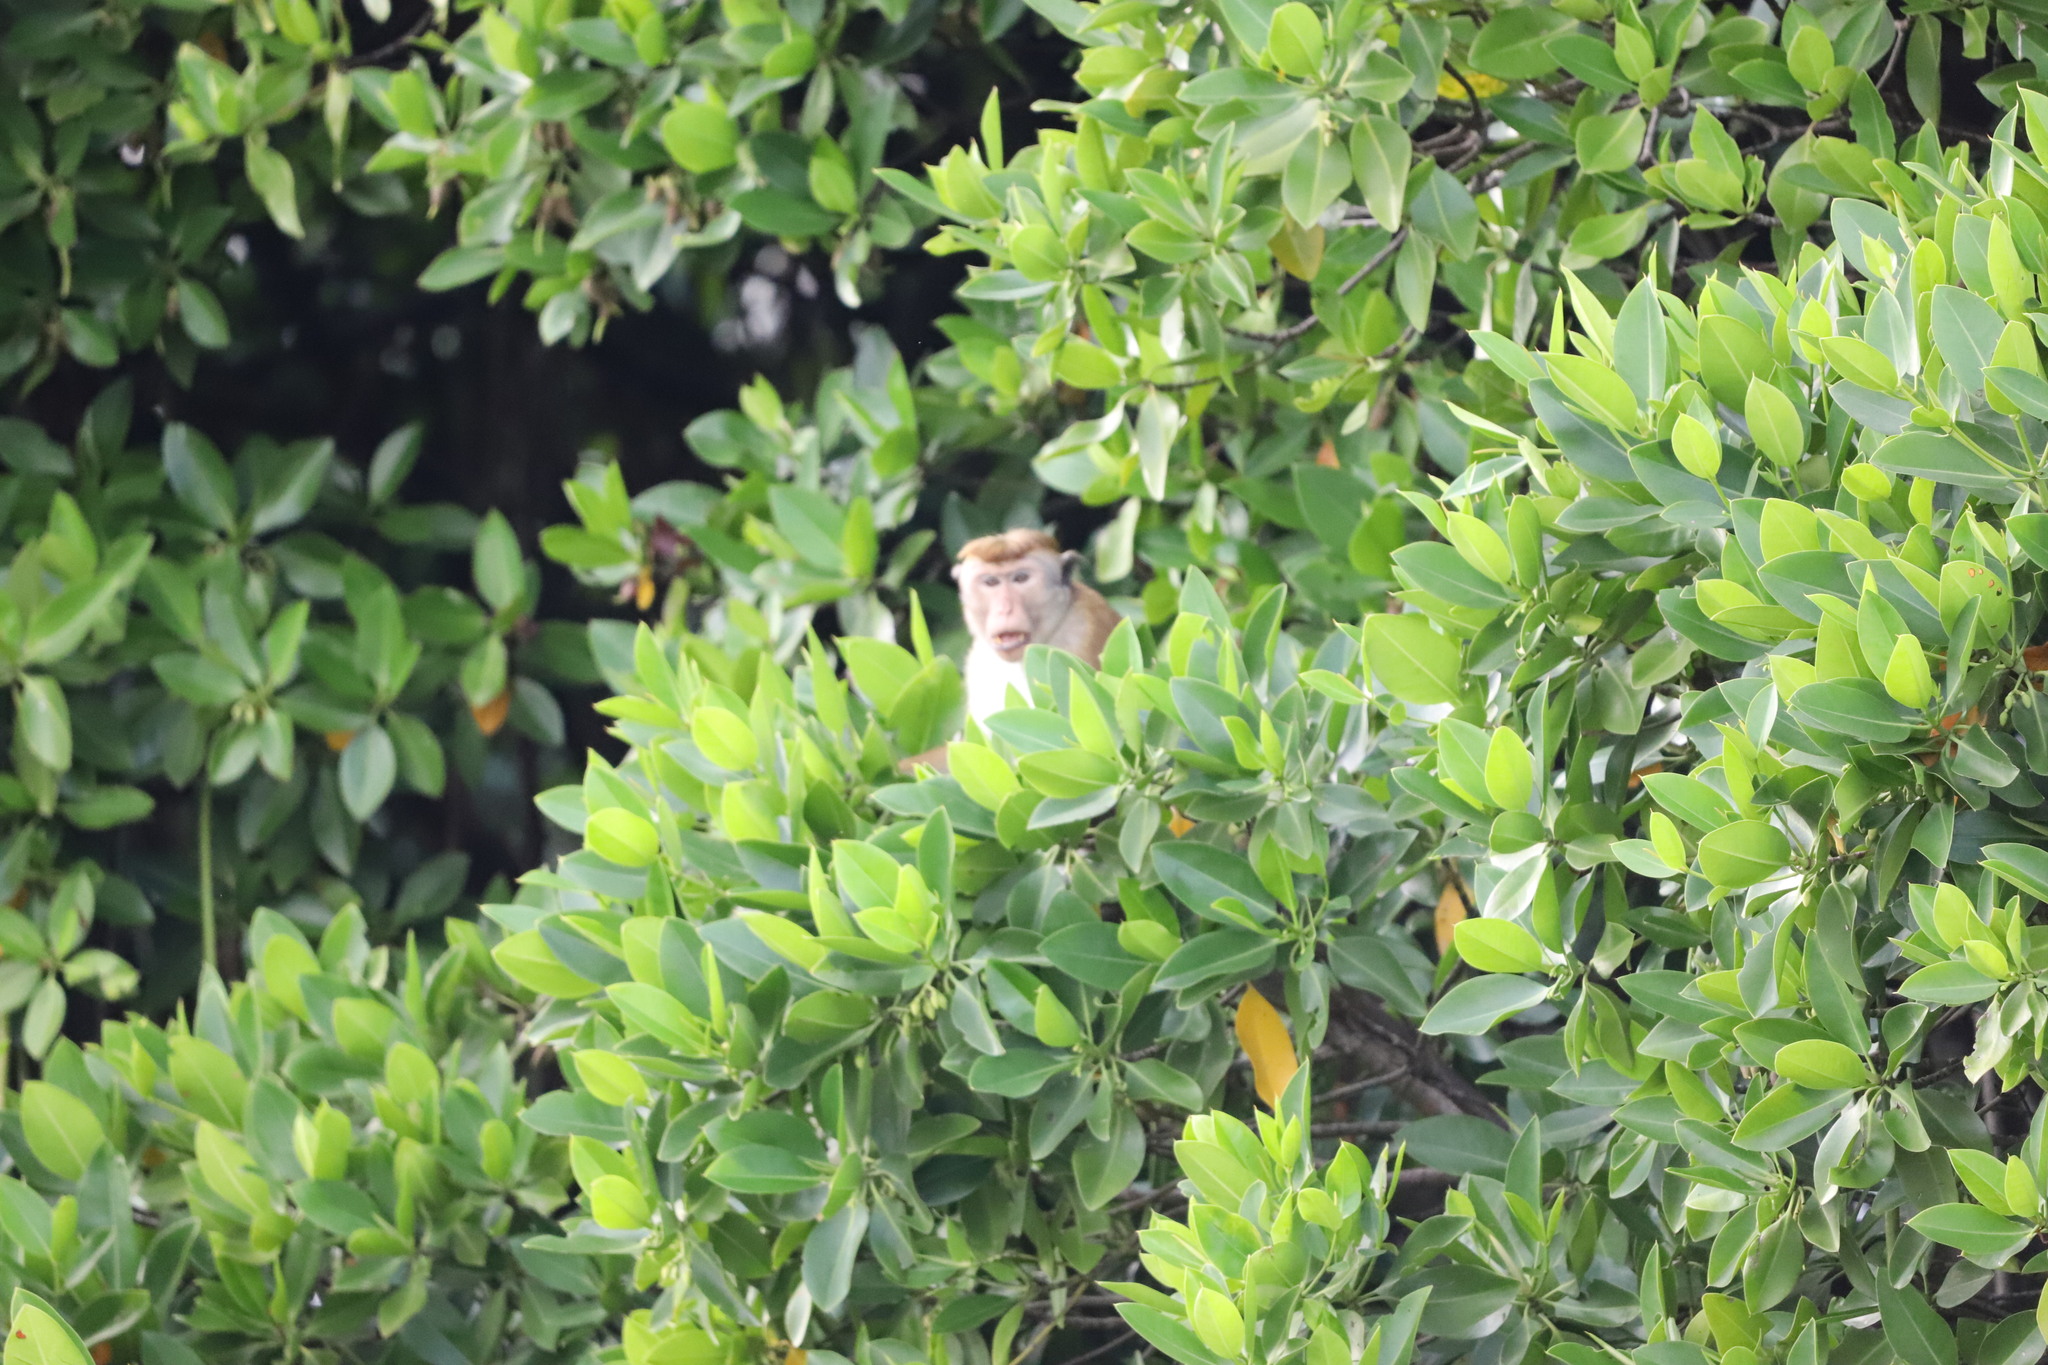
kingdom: Animalia
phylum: Chordata
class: Mammalia
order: Primates
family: Cercopithecidae
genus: Macaca
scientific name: Macaca sinica
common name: Toque macaque
